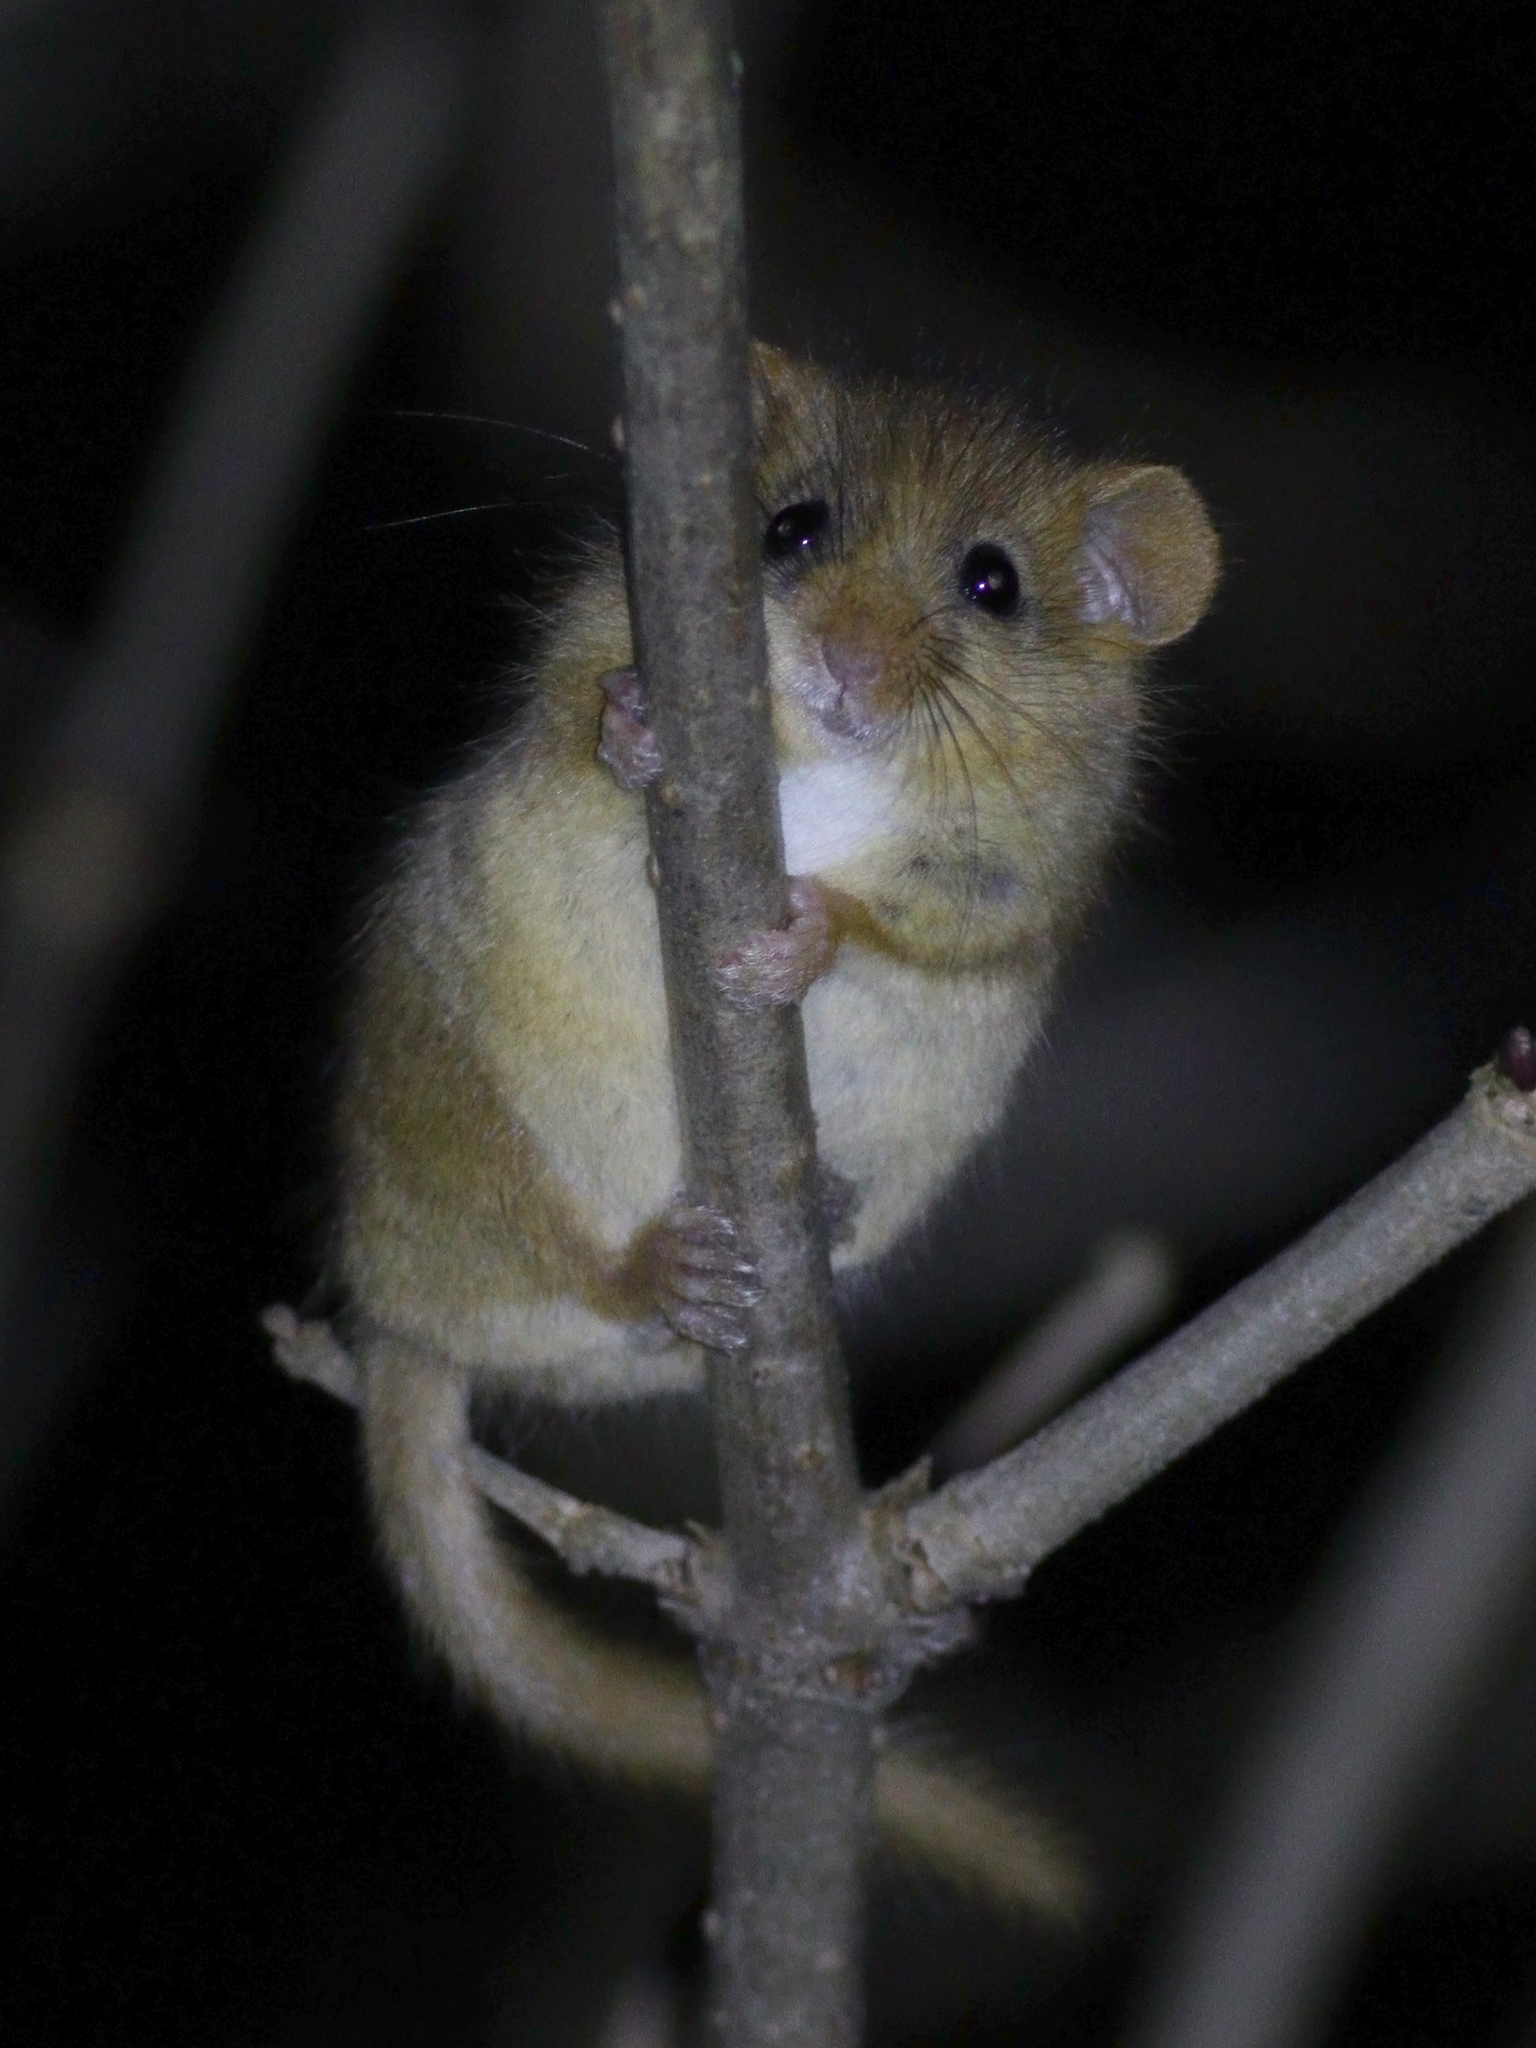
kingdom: Animalia
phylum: Chordata
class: Mammalia
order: Rodentia
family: Gliridae
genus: Muscardinus
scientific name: Muscardinus avellanarius
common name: Hazel dormouse
